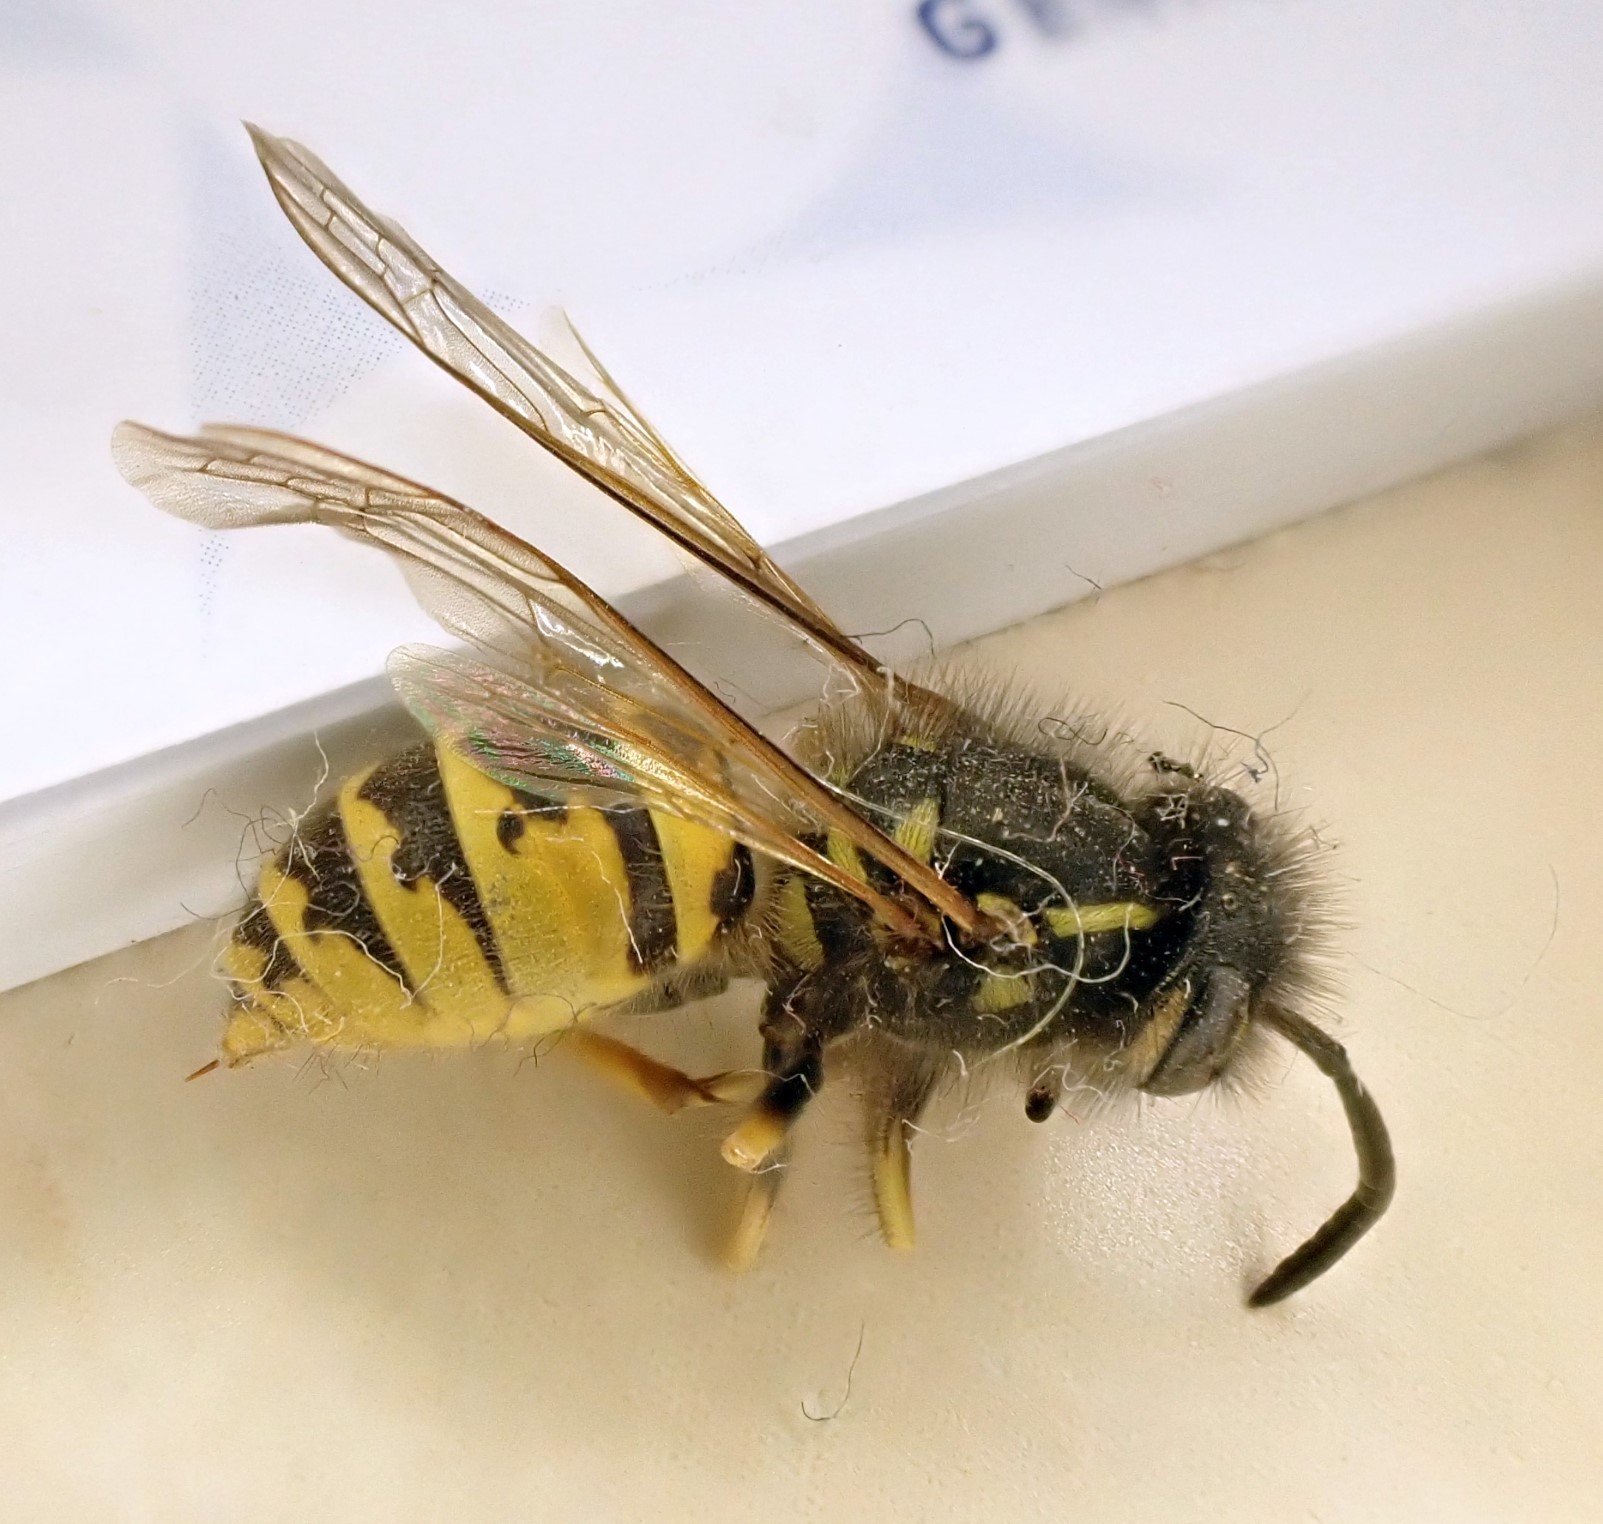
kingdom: Animalia
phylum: Arthropoda
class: Insecta
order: Hymenoptera
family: Vespidae
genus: Vespula
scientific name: Vespula vulgaris
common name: Common wasp
